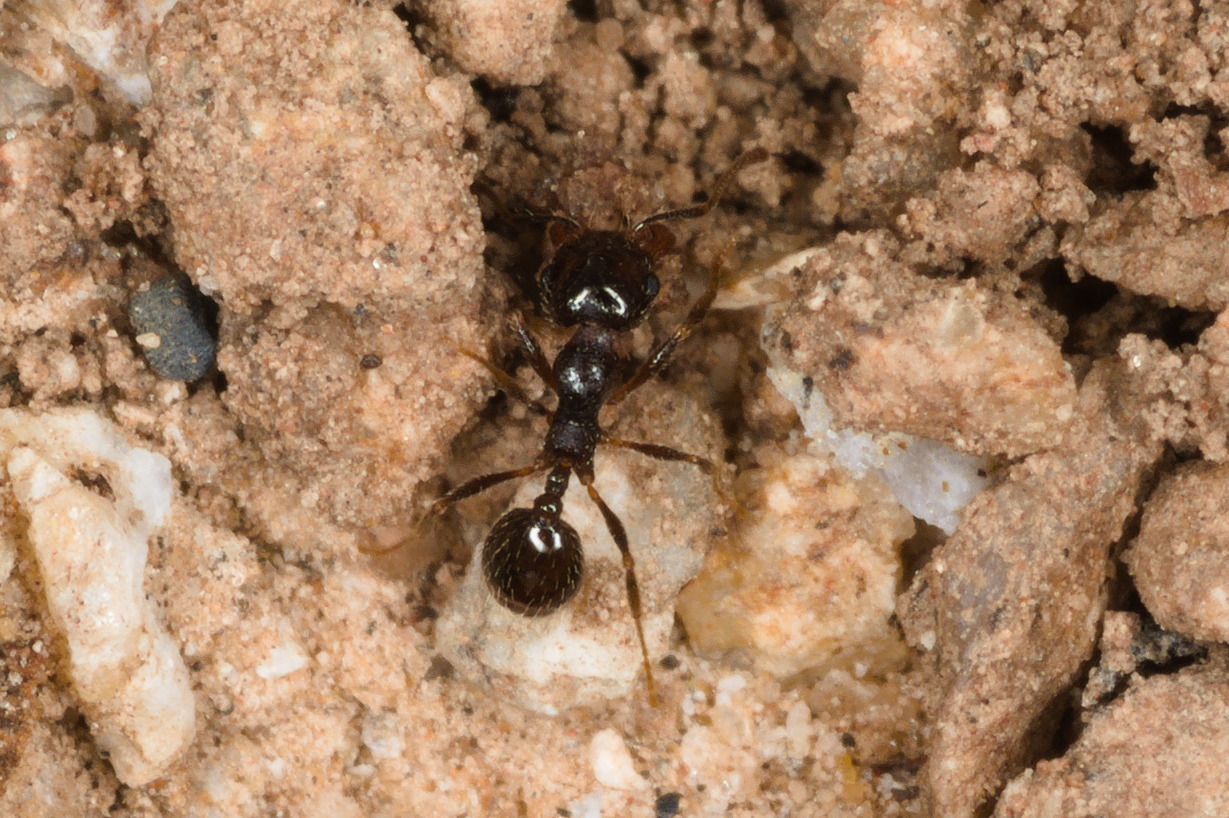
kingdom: Animalia
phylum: Arthropoda
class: Insecta
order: Hymenoptera
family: Formicidae
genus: Pheidole
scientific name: Pheidole xerophila
